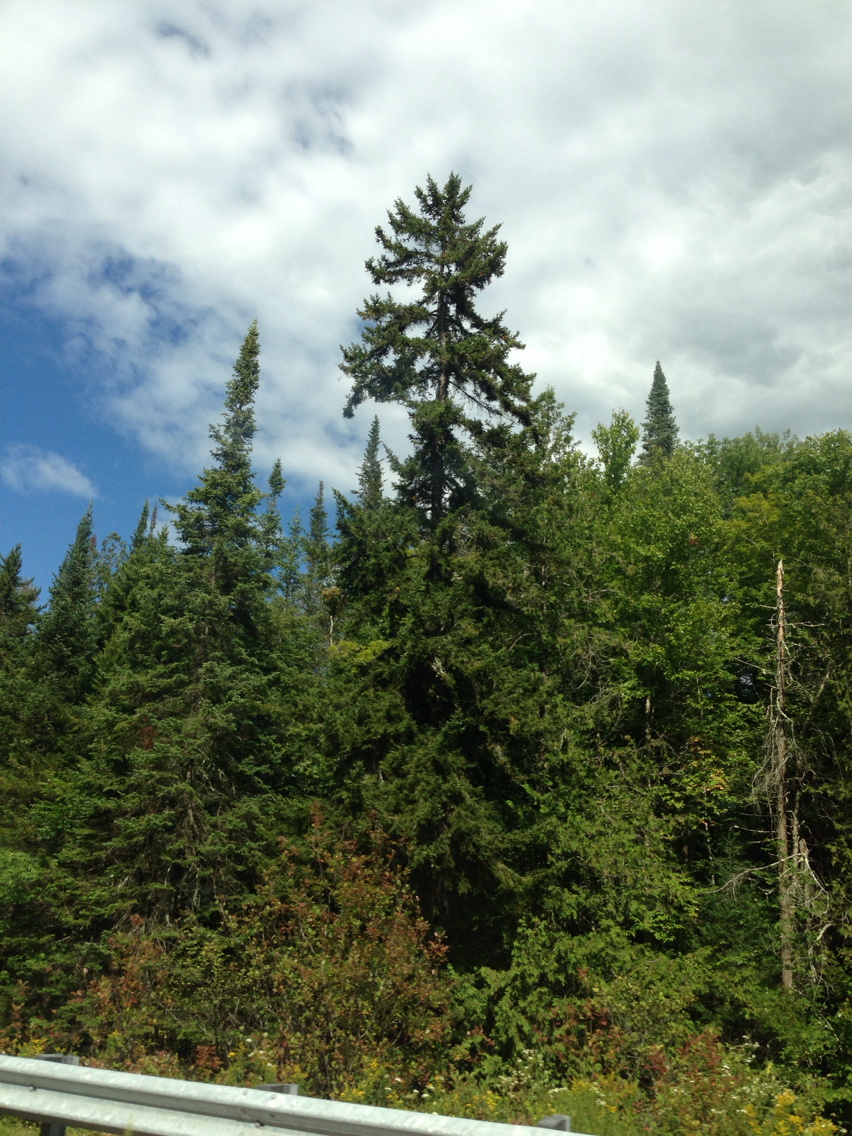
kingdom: Plantae
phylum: Tracheophyta
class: Pinopsida
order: Pinales
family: Pinaceae
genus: Picea
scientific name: Picea rubens
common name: Red spruce
